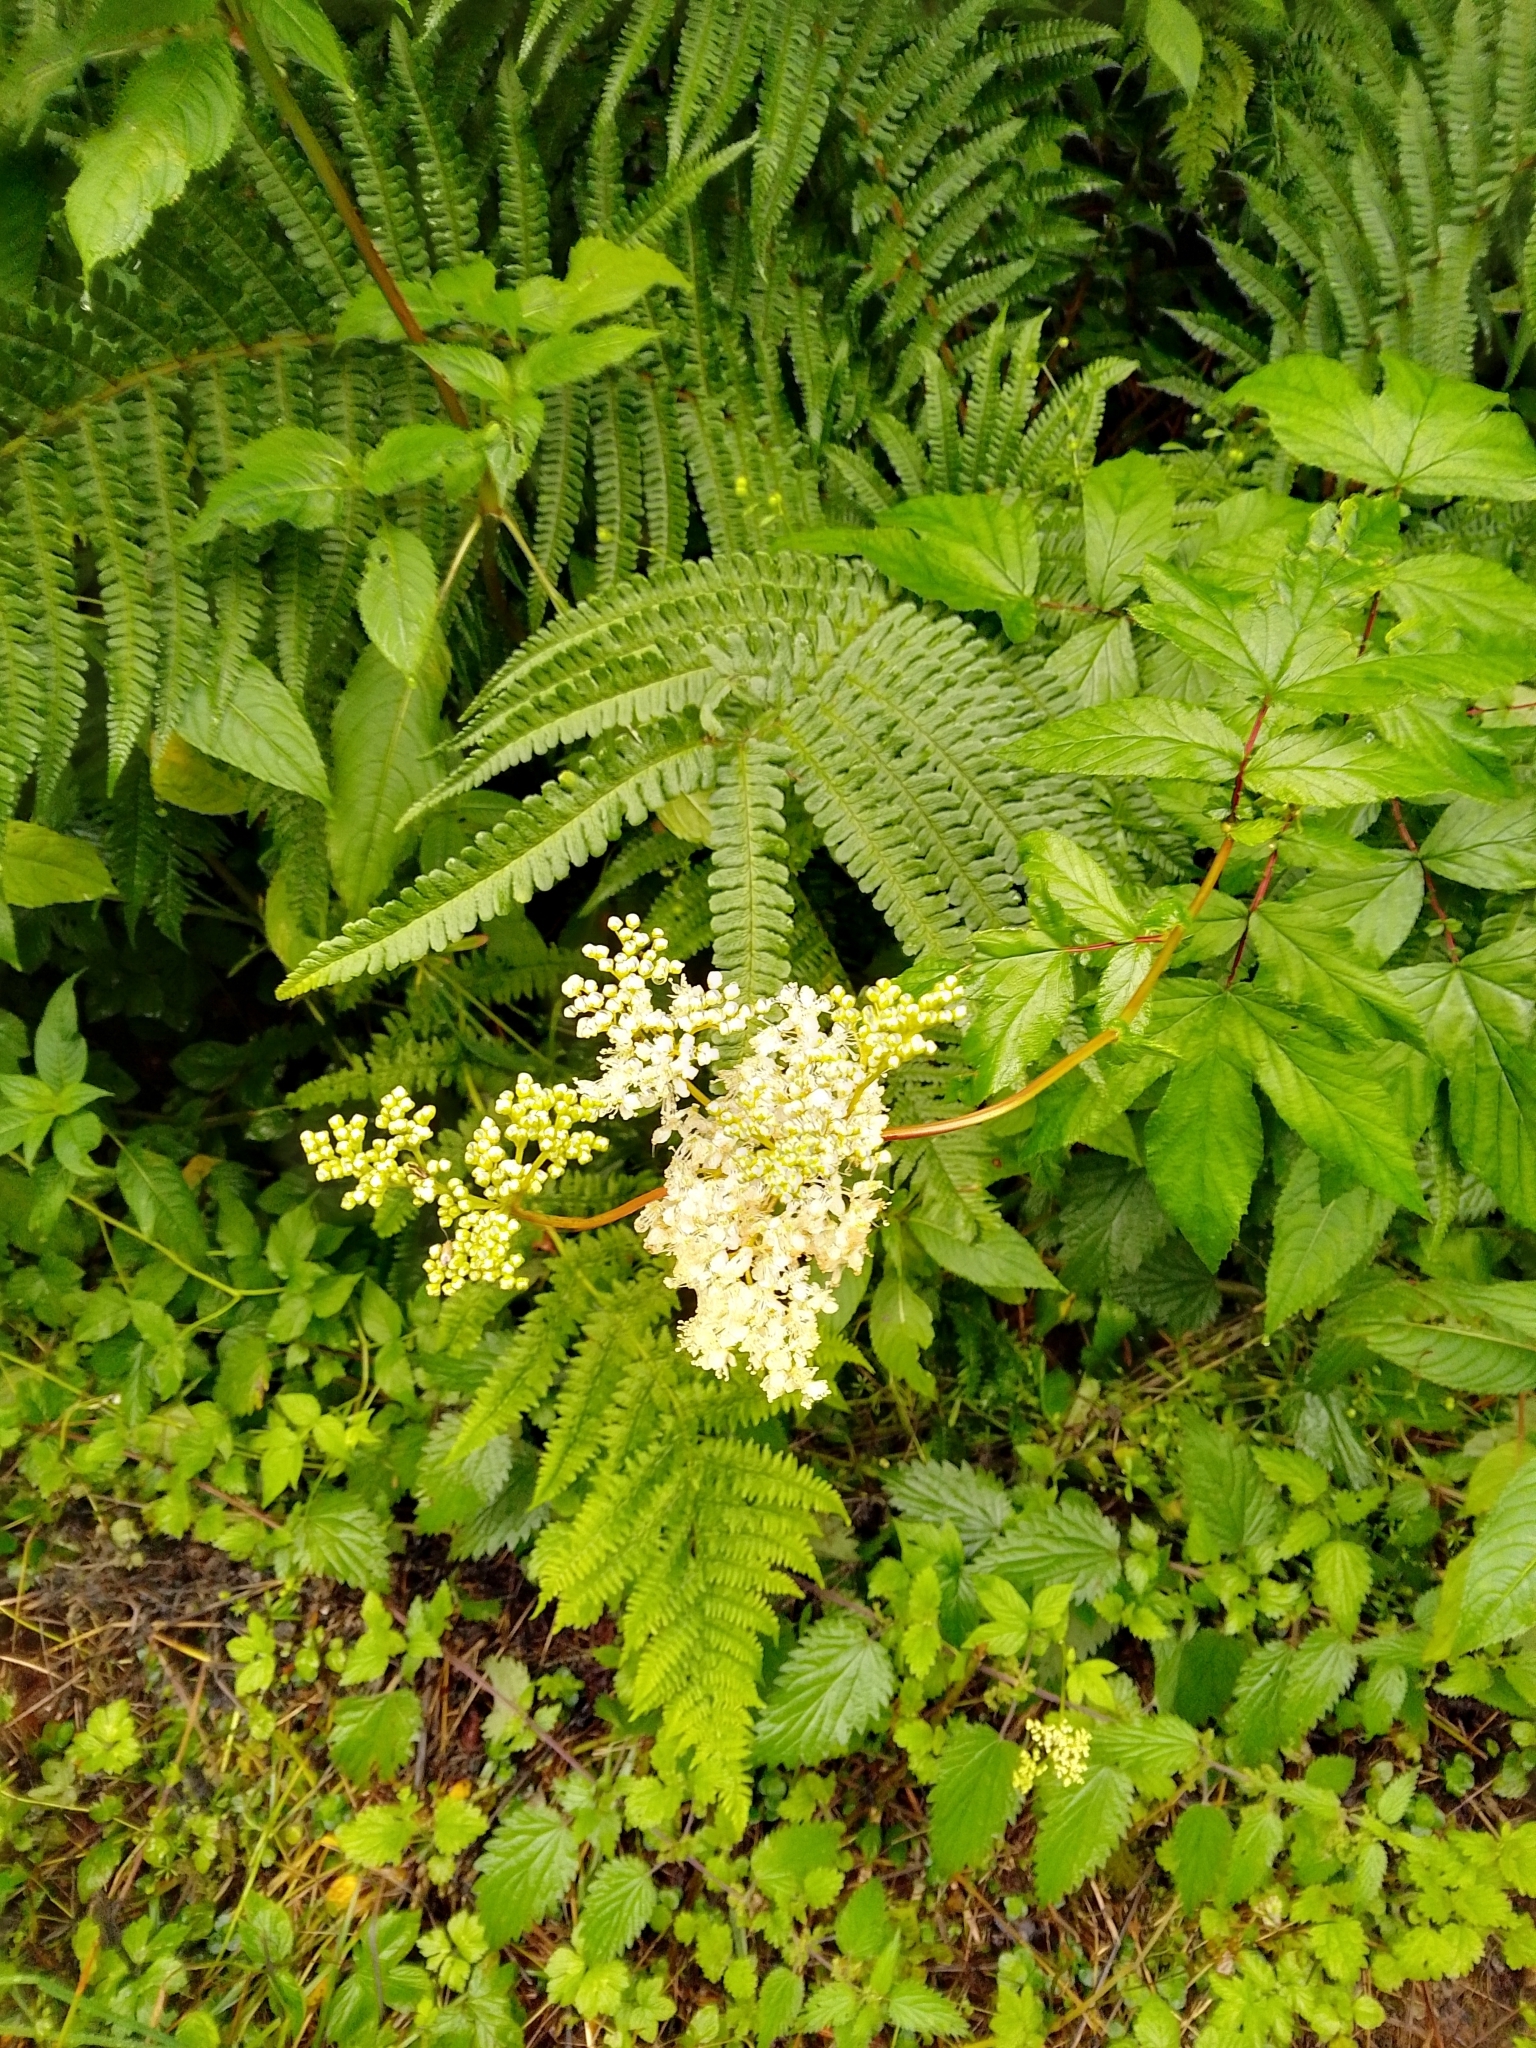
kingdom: Plantae
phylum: Tracheophyta
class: Magnoliopsida
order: Rosales
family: Rosaceae
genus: Filipendula
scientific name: Filipendula ulmaria
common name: Meadowsweet
